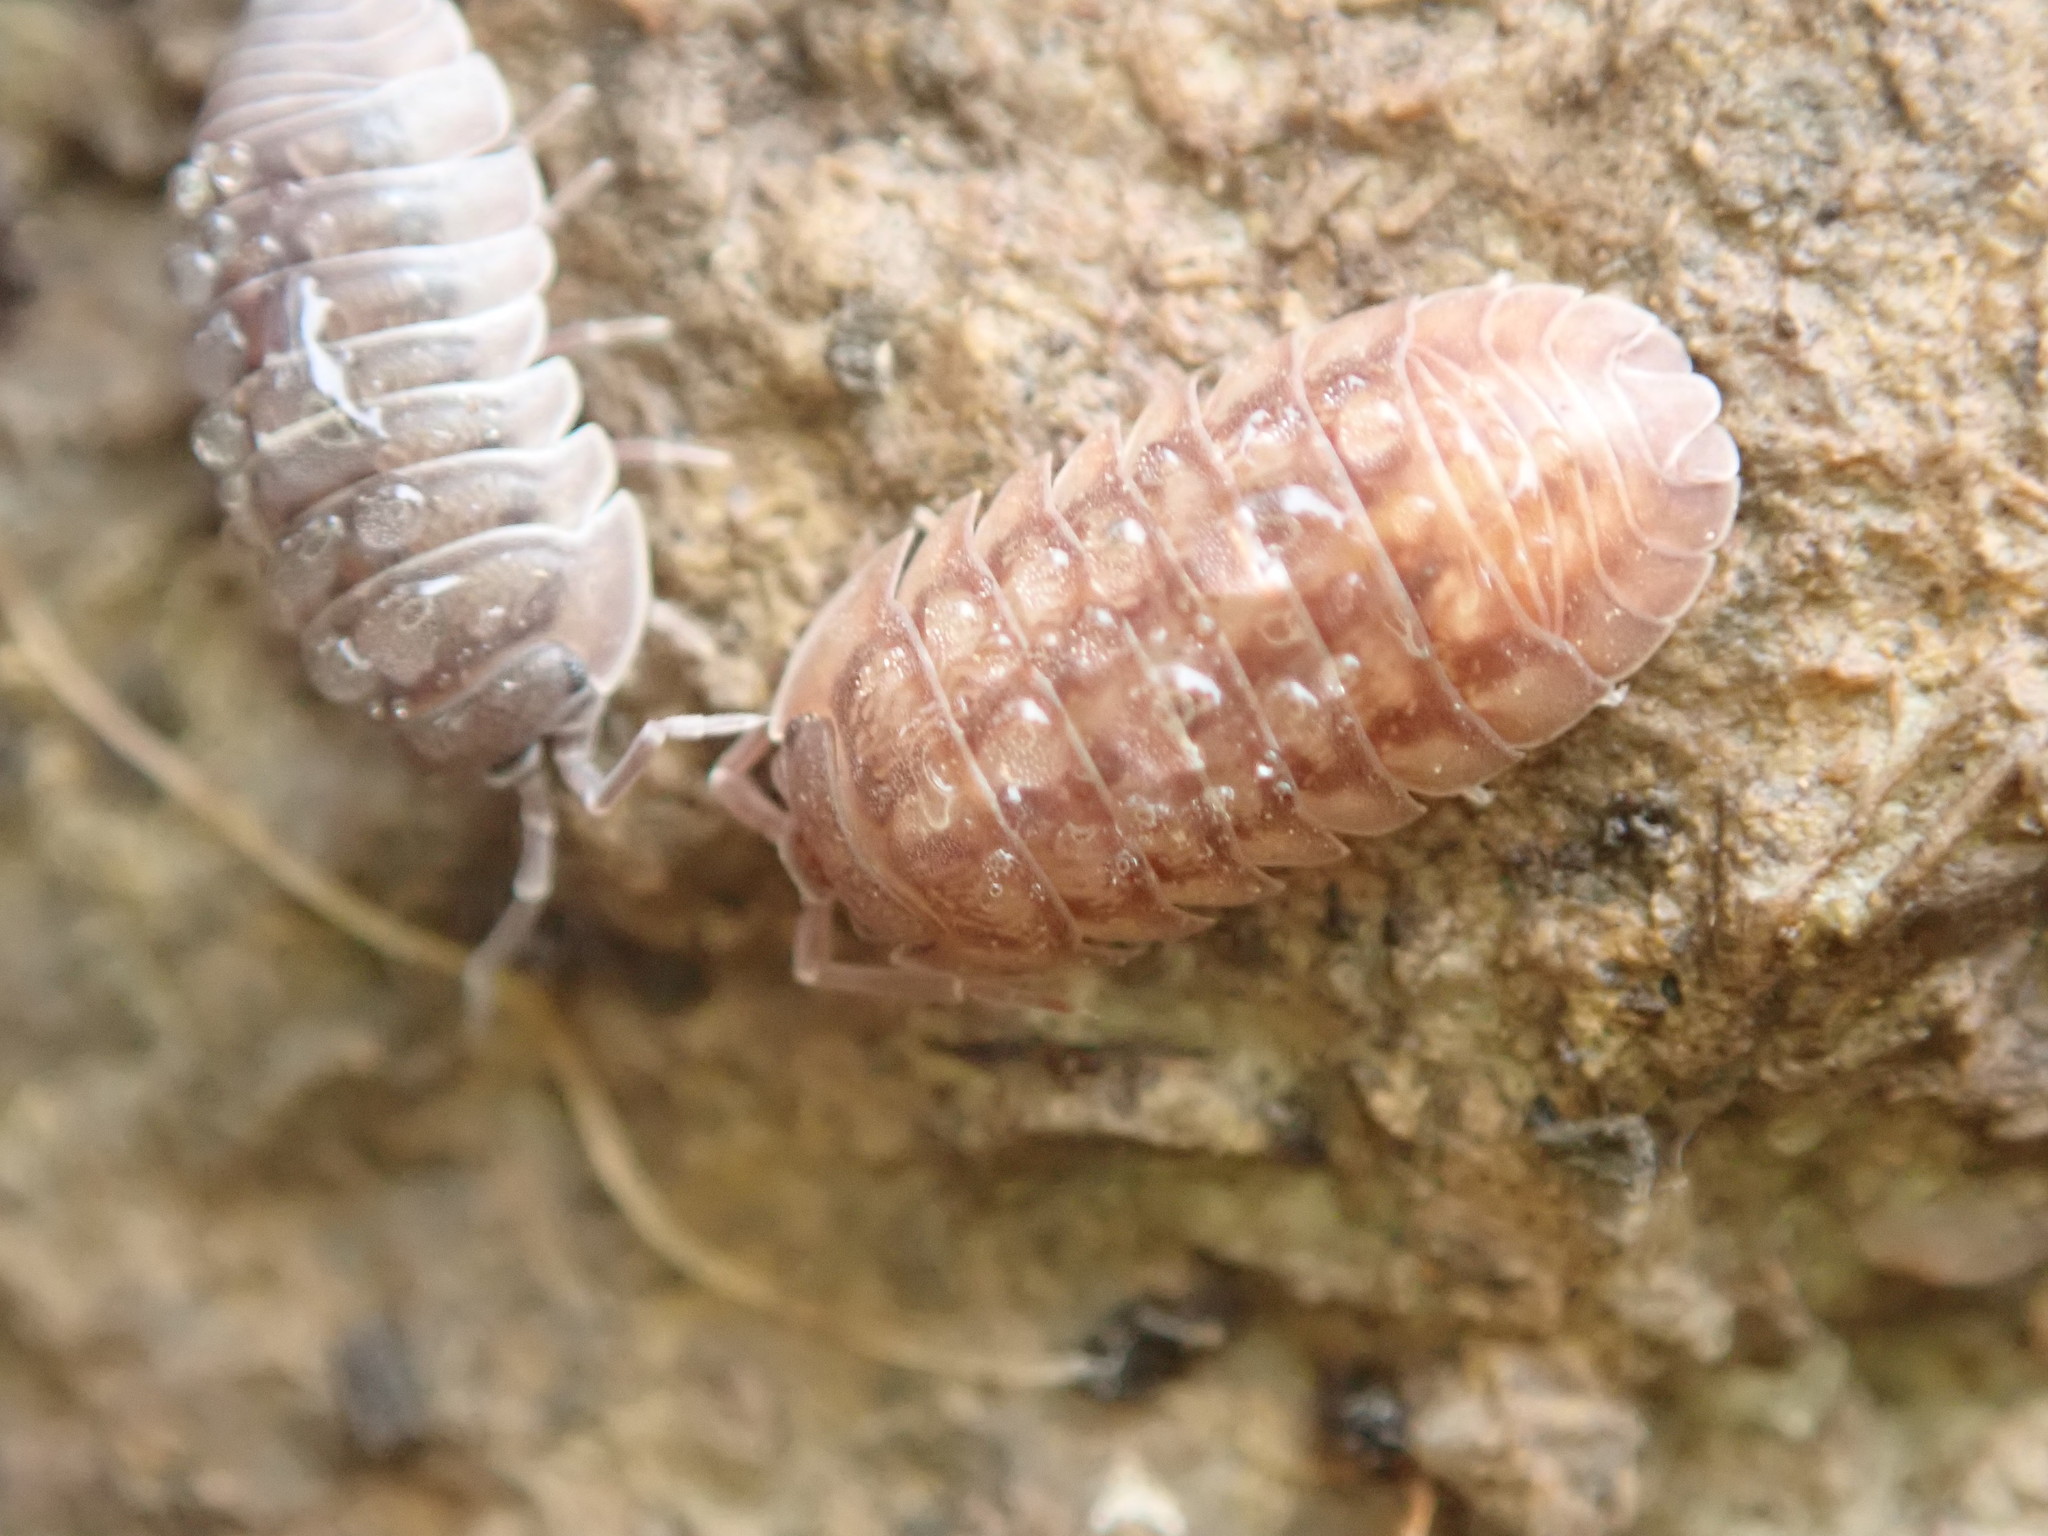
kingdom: Animalia
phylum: Arthropoda
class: Malacostraca
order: Isopoda
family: Armadillidiidae
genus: Armadillidium
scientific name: Armadillidium nasatum
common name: Isopod
